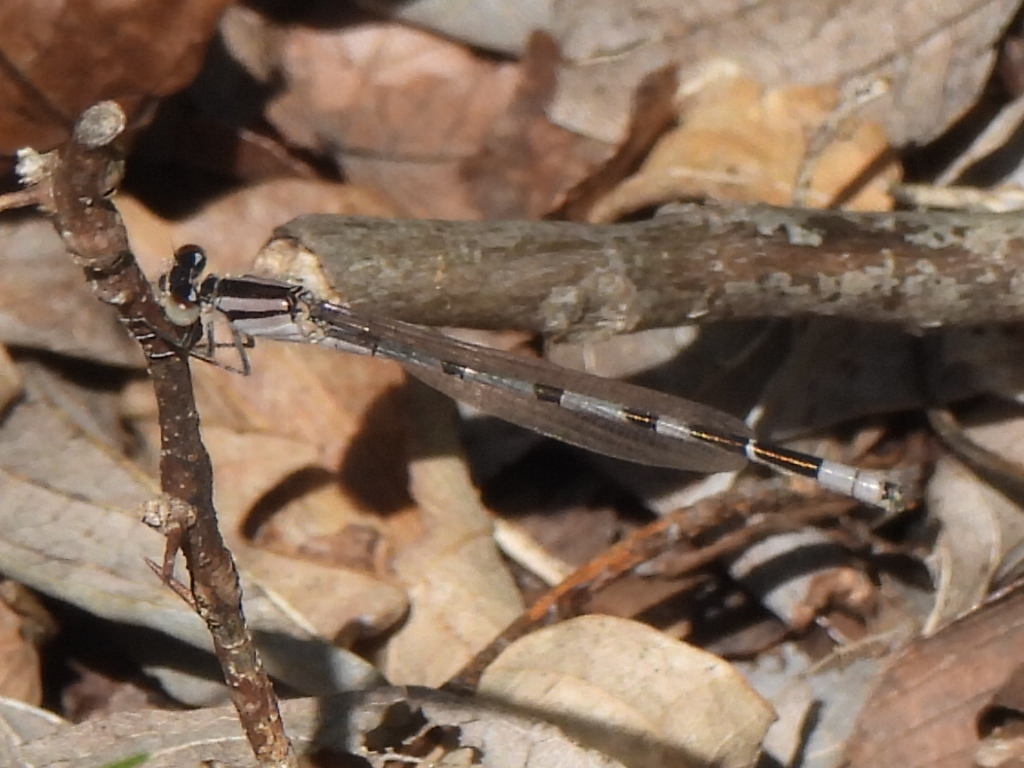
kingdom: Animalia
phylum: Arthropoda
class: Insecta
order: Odonata
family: Coenagrionidae
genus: Enallagma
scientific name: Enallagma civile
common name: Damselfly
